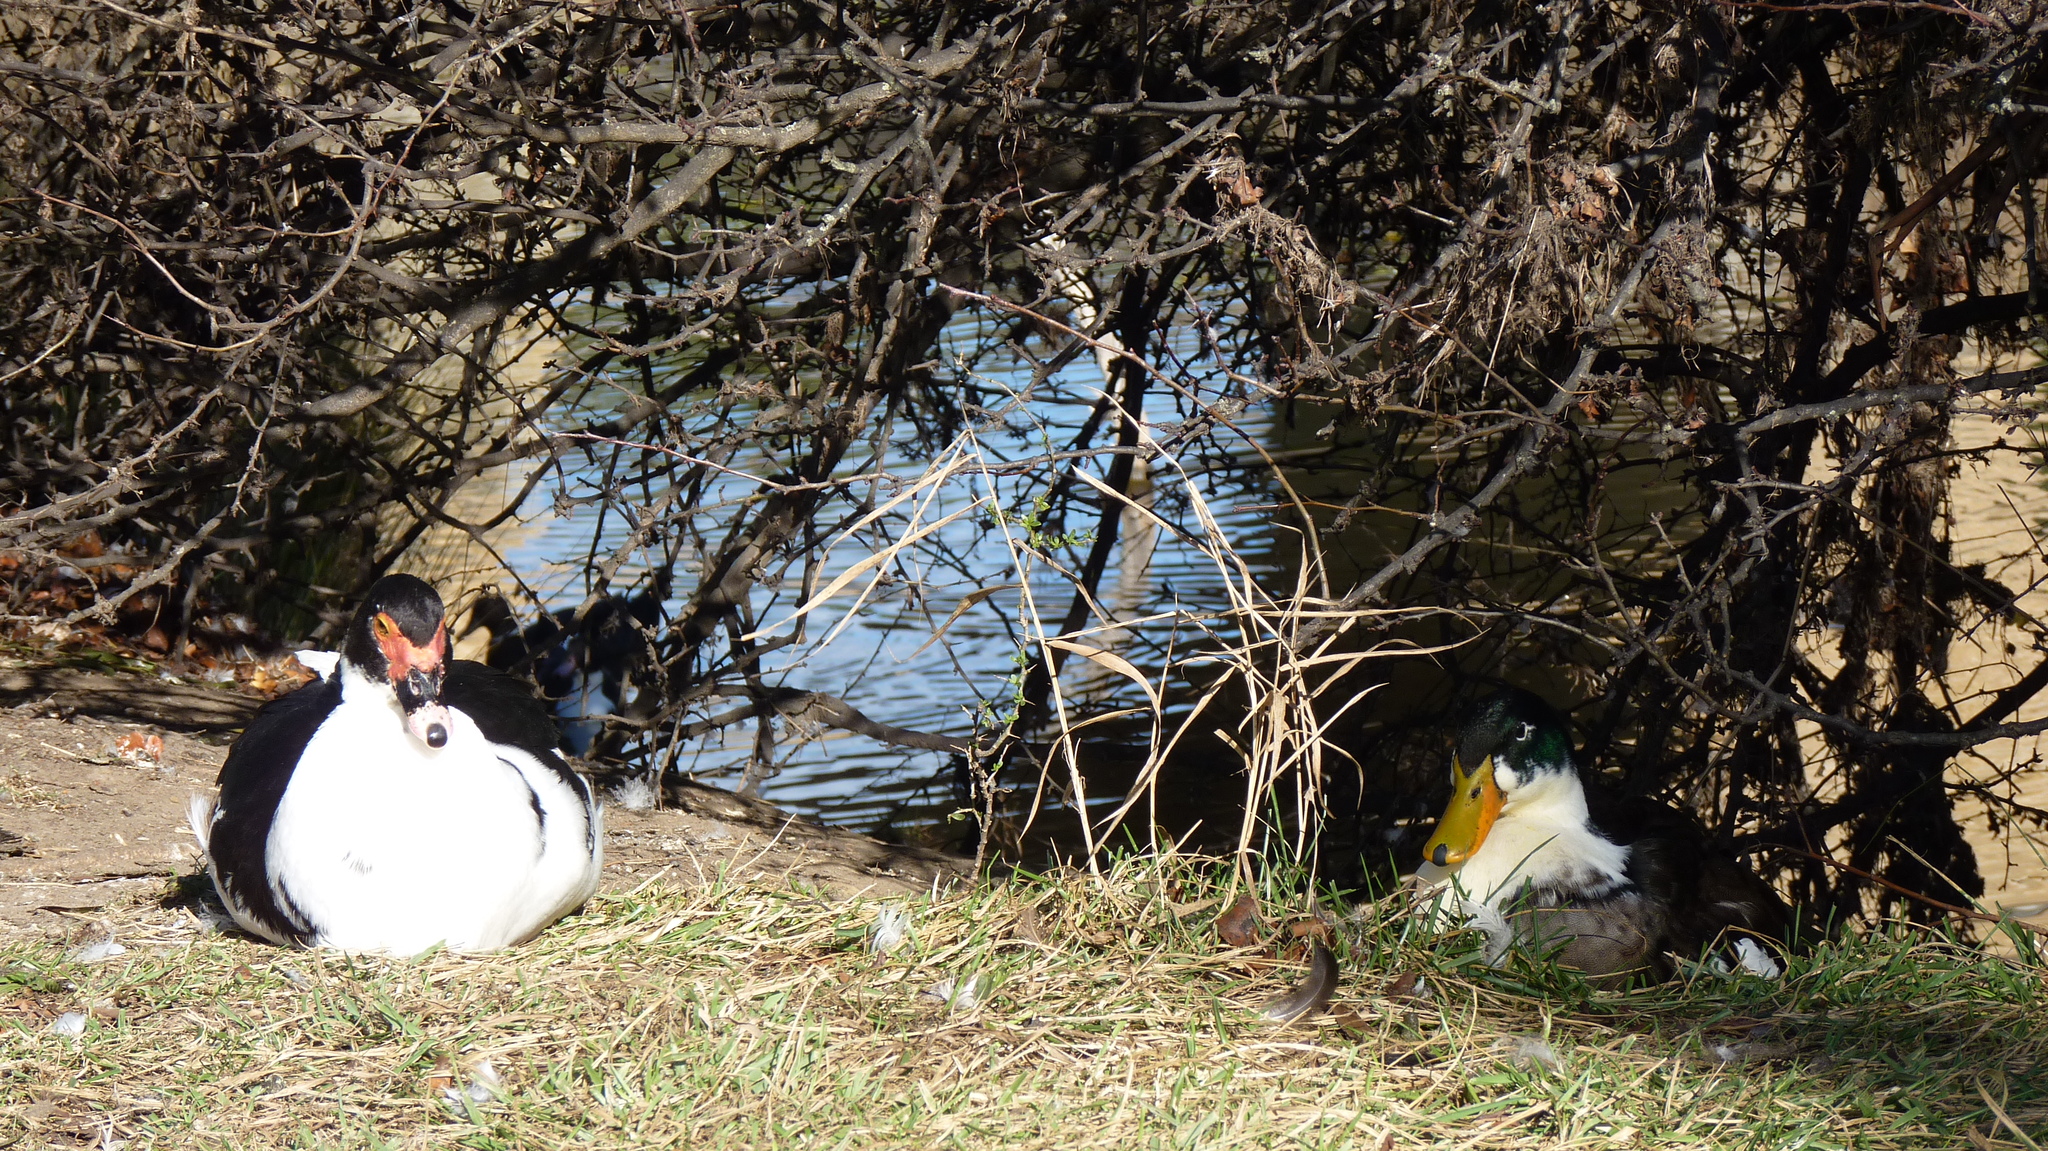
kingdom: Animalia
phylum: Chordata
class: Aves
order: Anseriformes
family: Anatidae
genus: Cairina
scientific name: Cairina moschata
